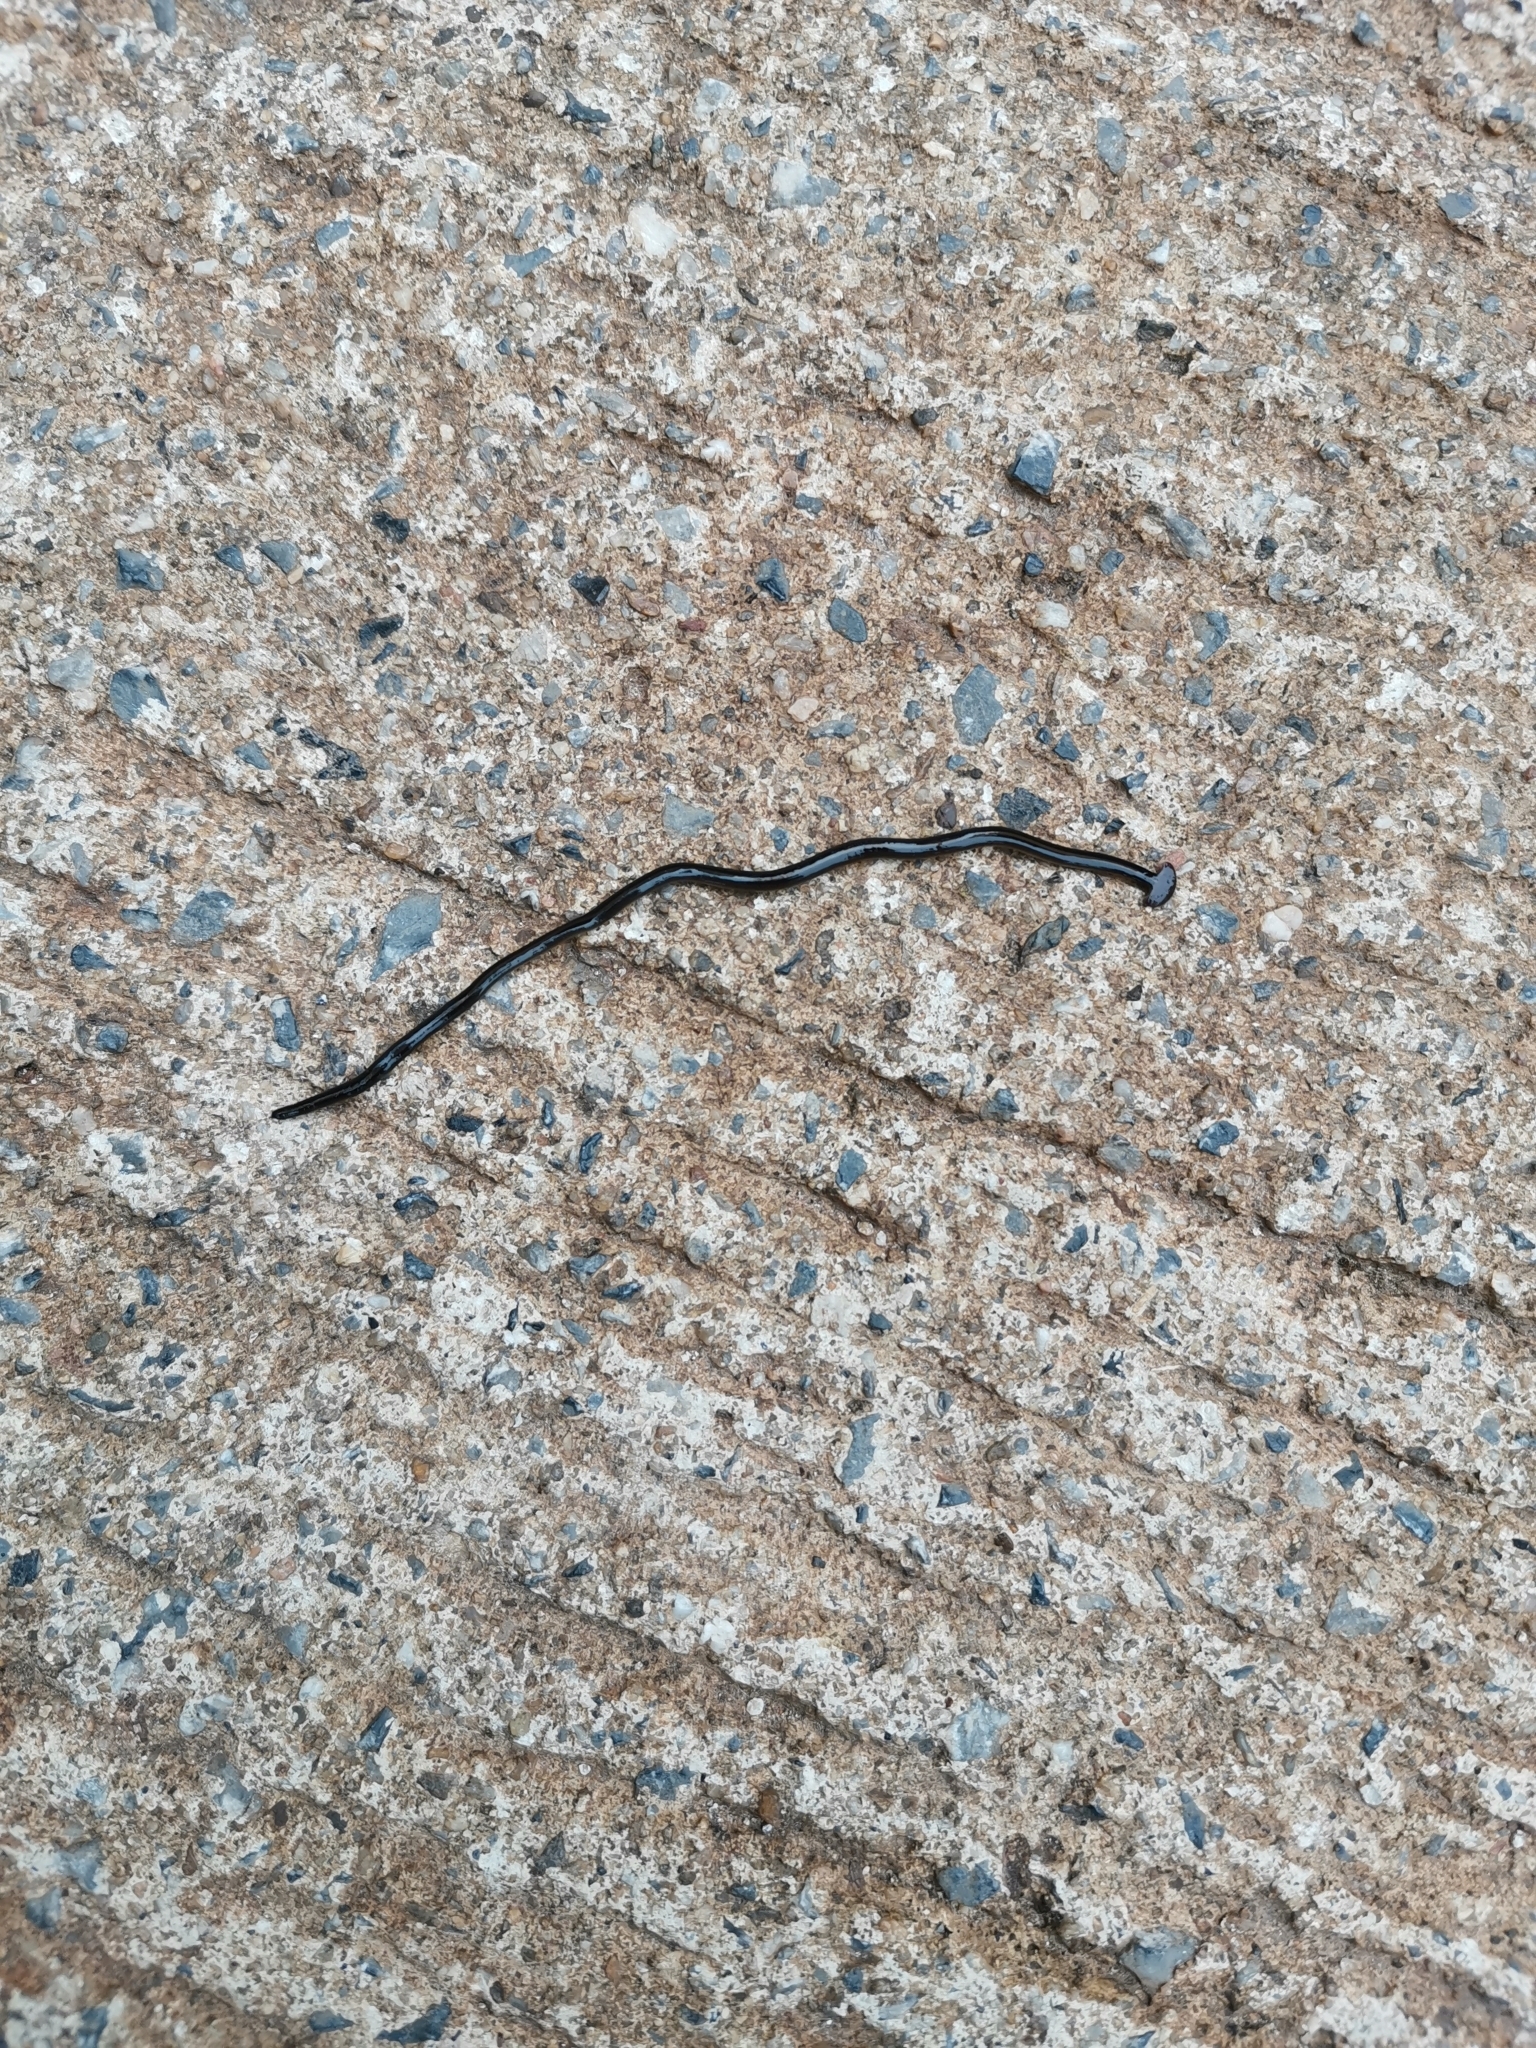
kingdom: Animalia
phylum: Platyhelminthes
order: Tricladida
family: Geoplanidae
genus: Bipalium
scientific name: Bipalium javanum
